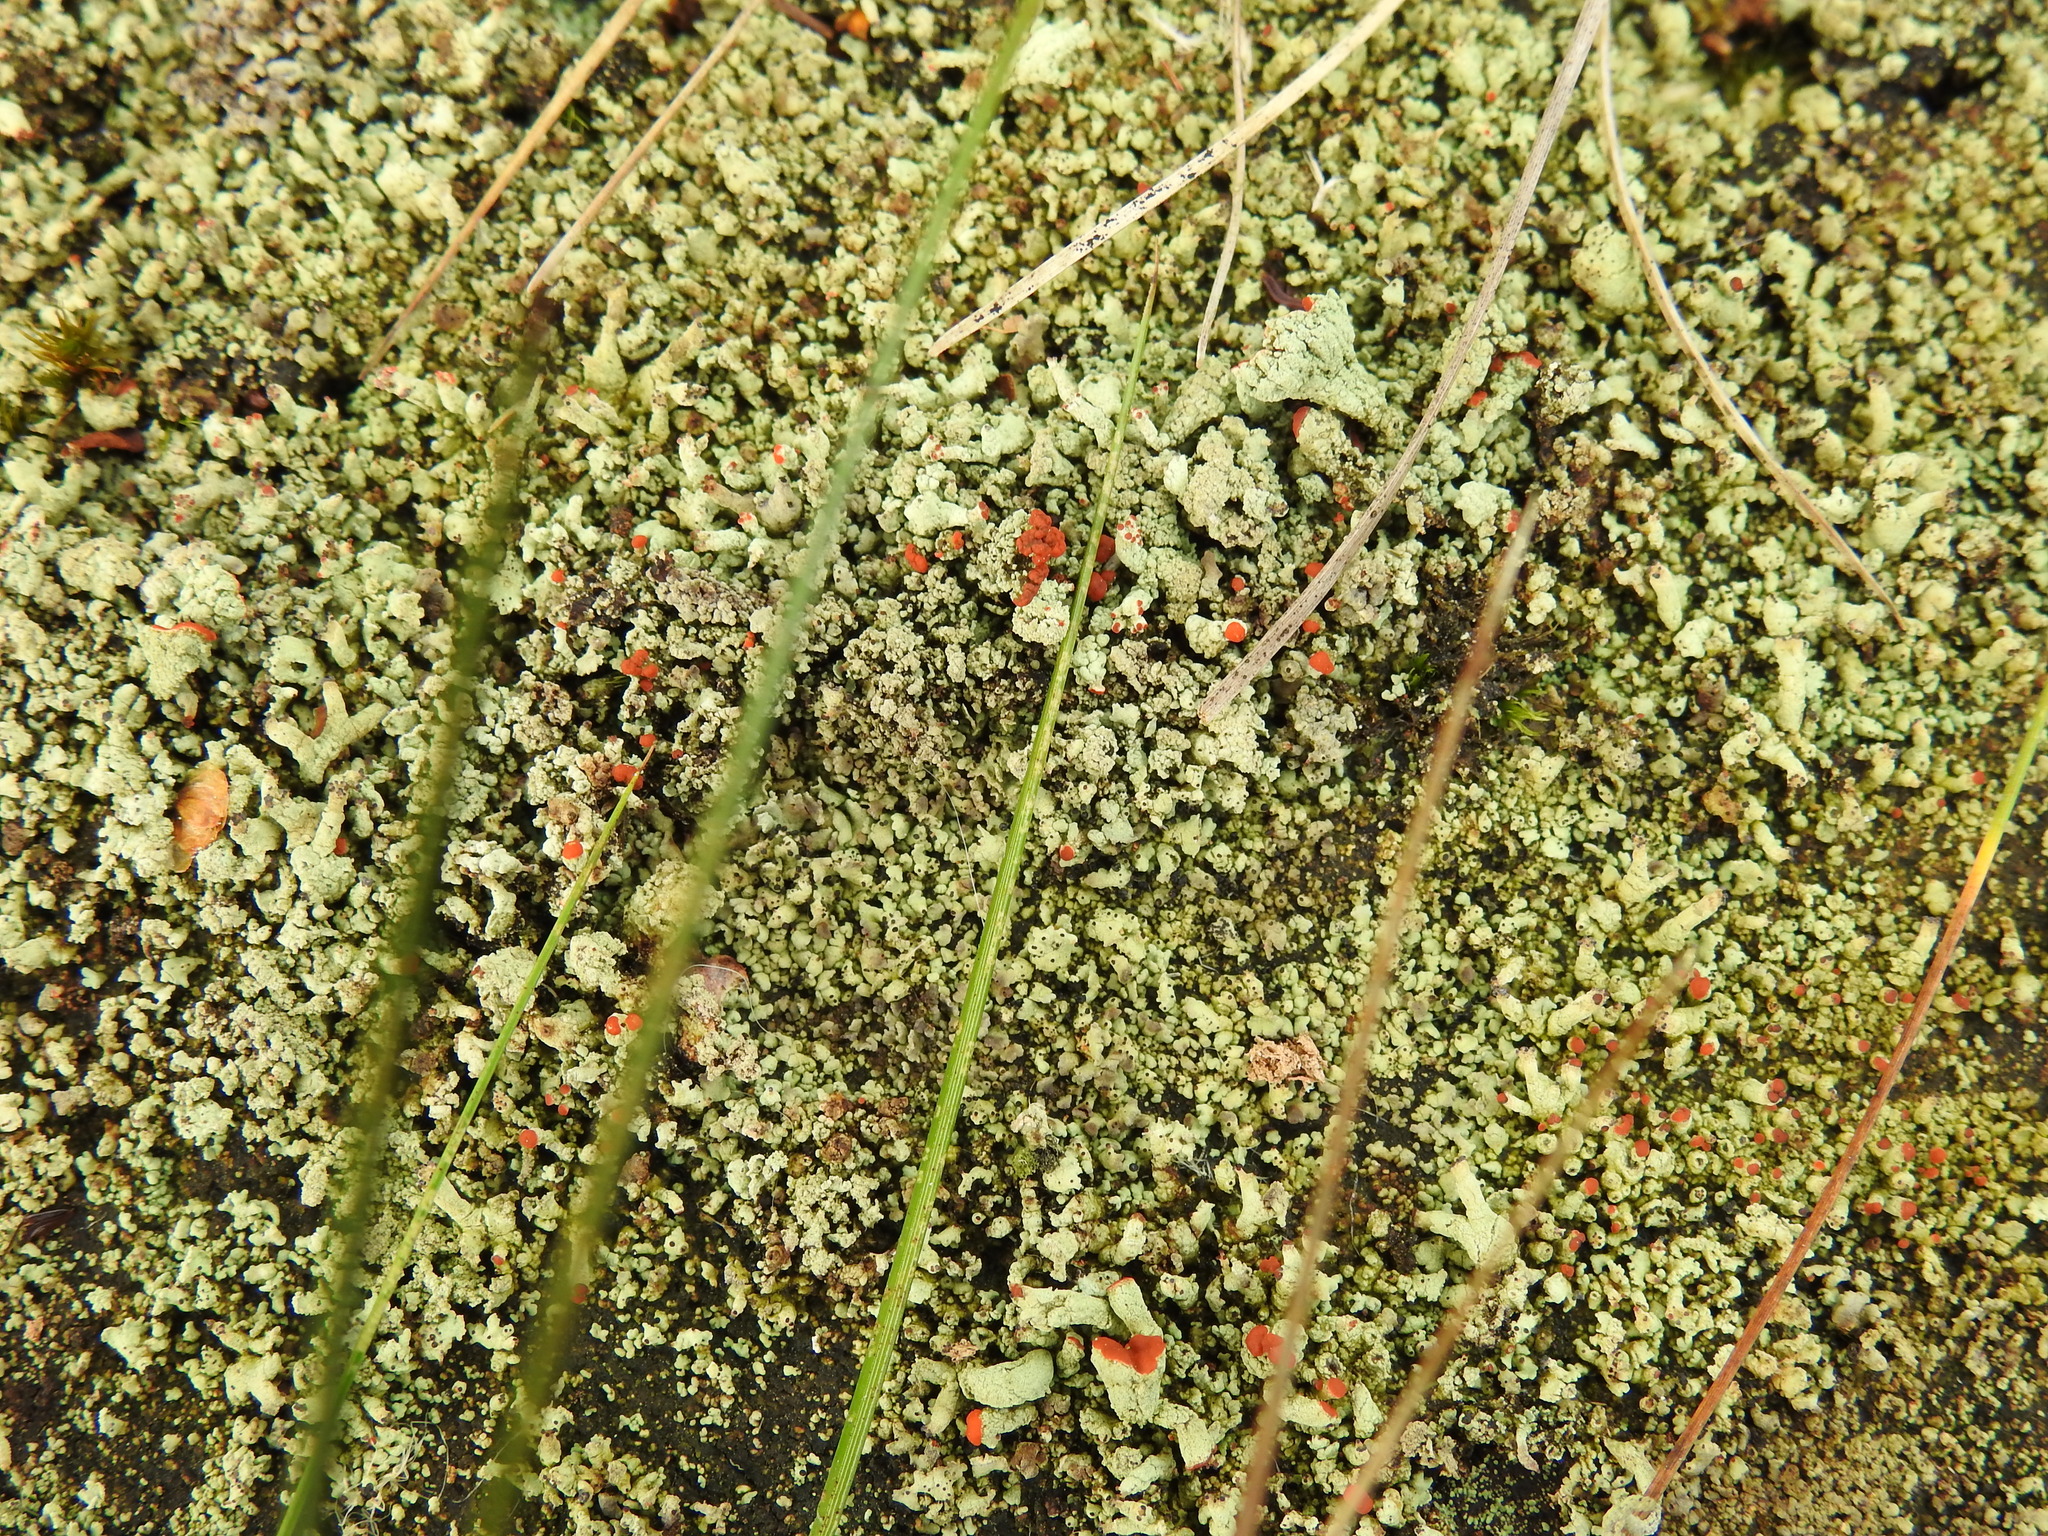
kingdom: Fungi
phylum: Ascomycota
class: Lecanoromycetes
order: Lecanorales
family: Cladoniaceae
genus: Cladonia
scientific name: Cladonia incrassata
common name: Powder-foot british soldiers
